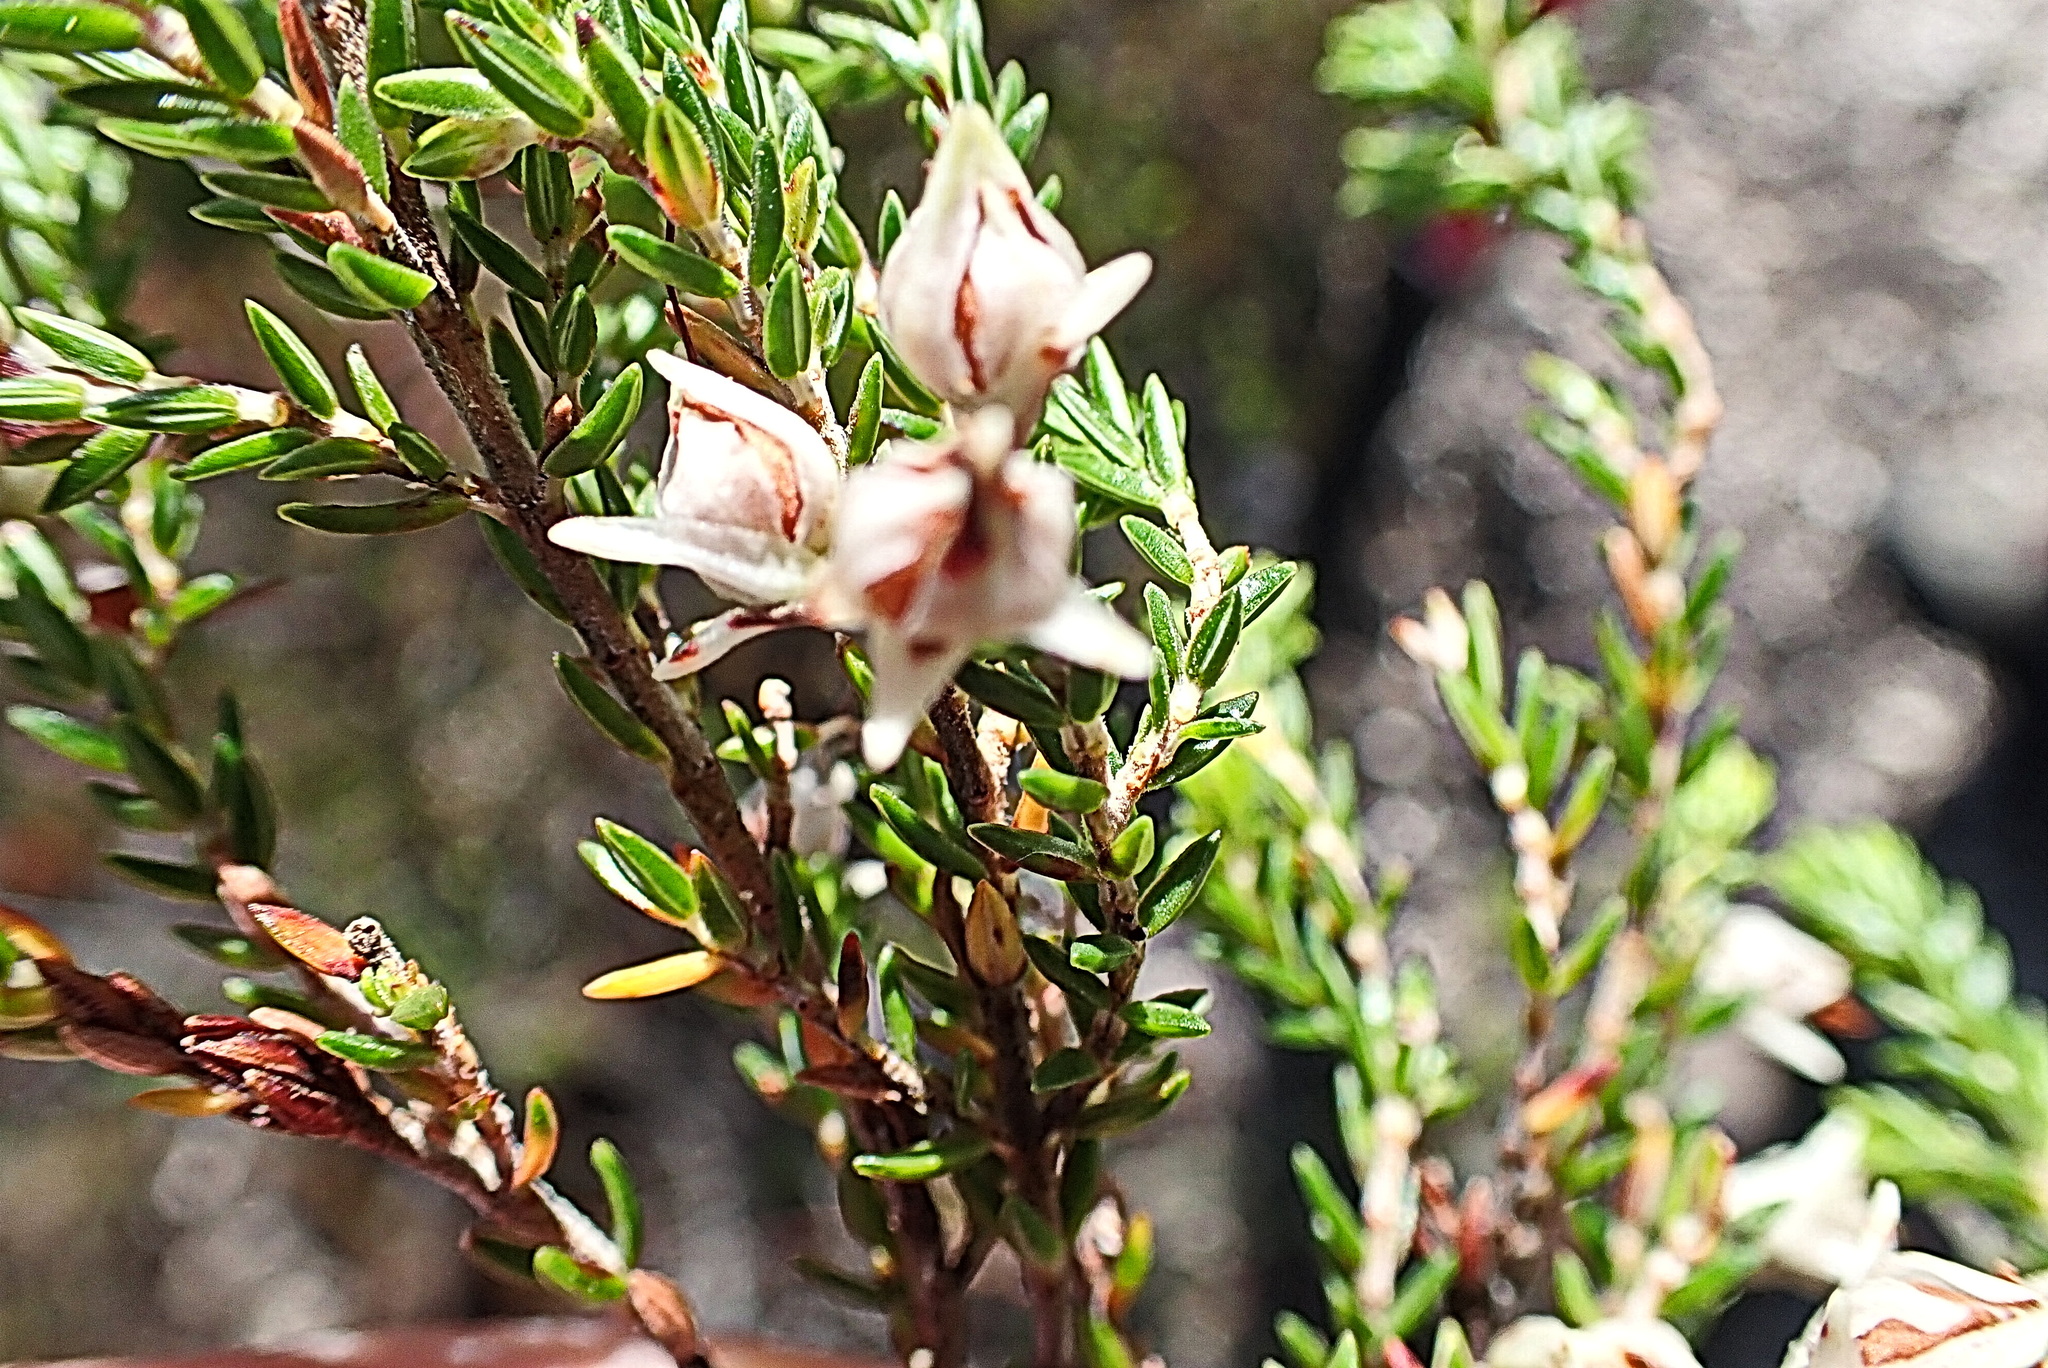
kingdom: Plantae
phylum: Tracheophyta
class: Magnoliopsida
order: Ericales
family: Ericaceae
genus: Erica
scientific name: Erica triceps
